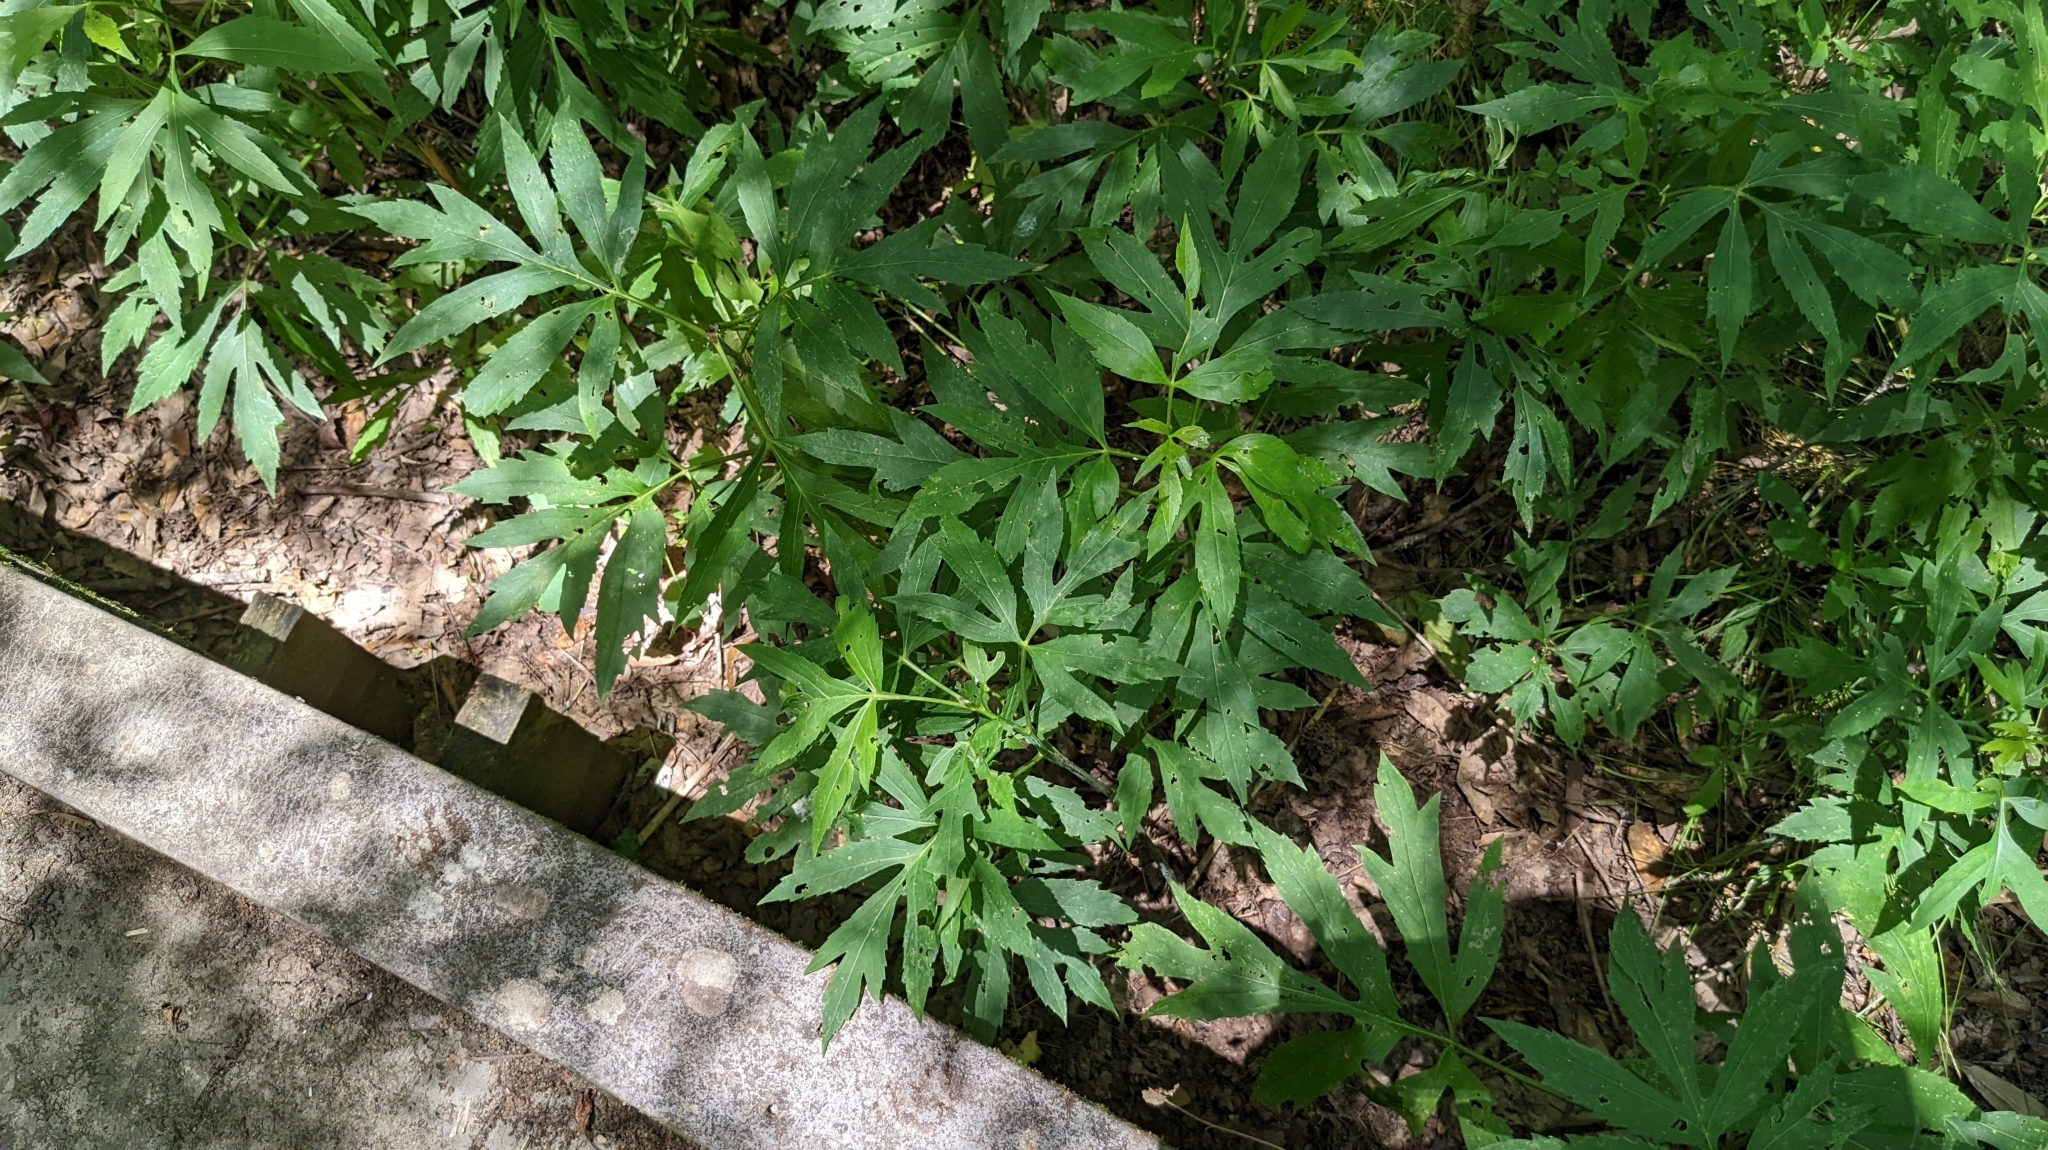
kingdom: Plantae
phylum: Tracheophyta
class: Magnoliopsida
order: Asterales
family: Asteraceae
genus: Rudbeckia
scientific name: Rudbeckia laciniata
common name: Coneflower
